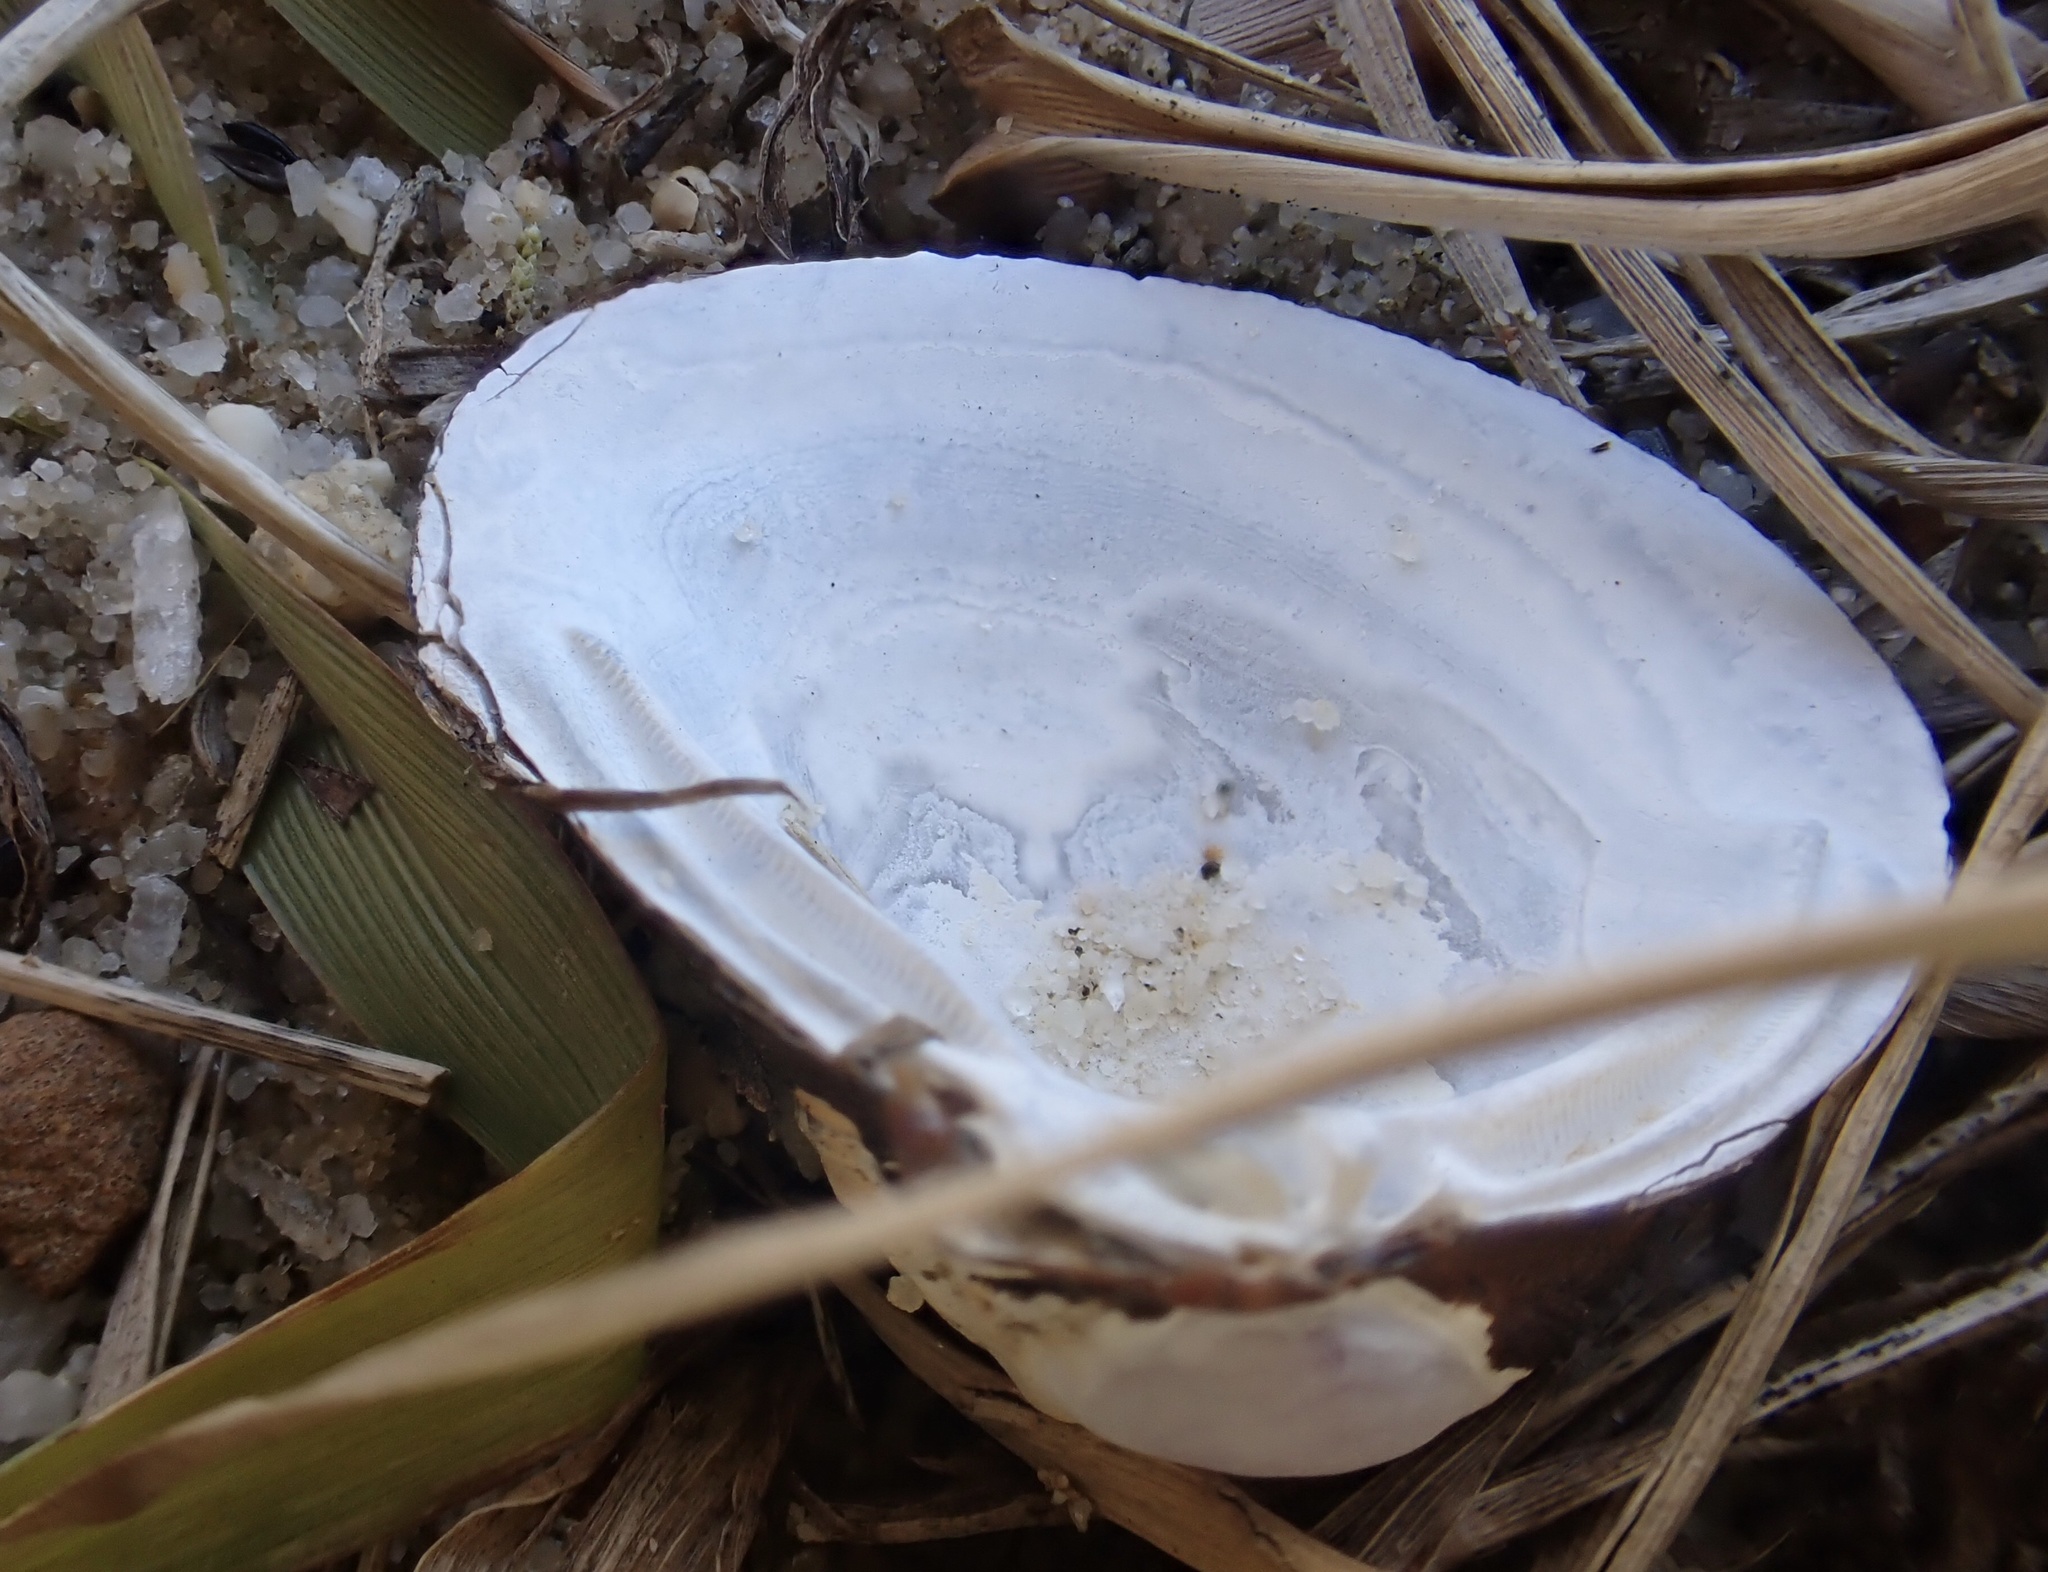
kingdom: Animalia
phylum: Mollusca
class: Bivalvia
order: Venerida
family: Cyrenidae
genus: Corbicula
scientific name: Corbicula fluminea
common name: Asian clam
